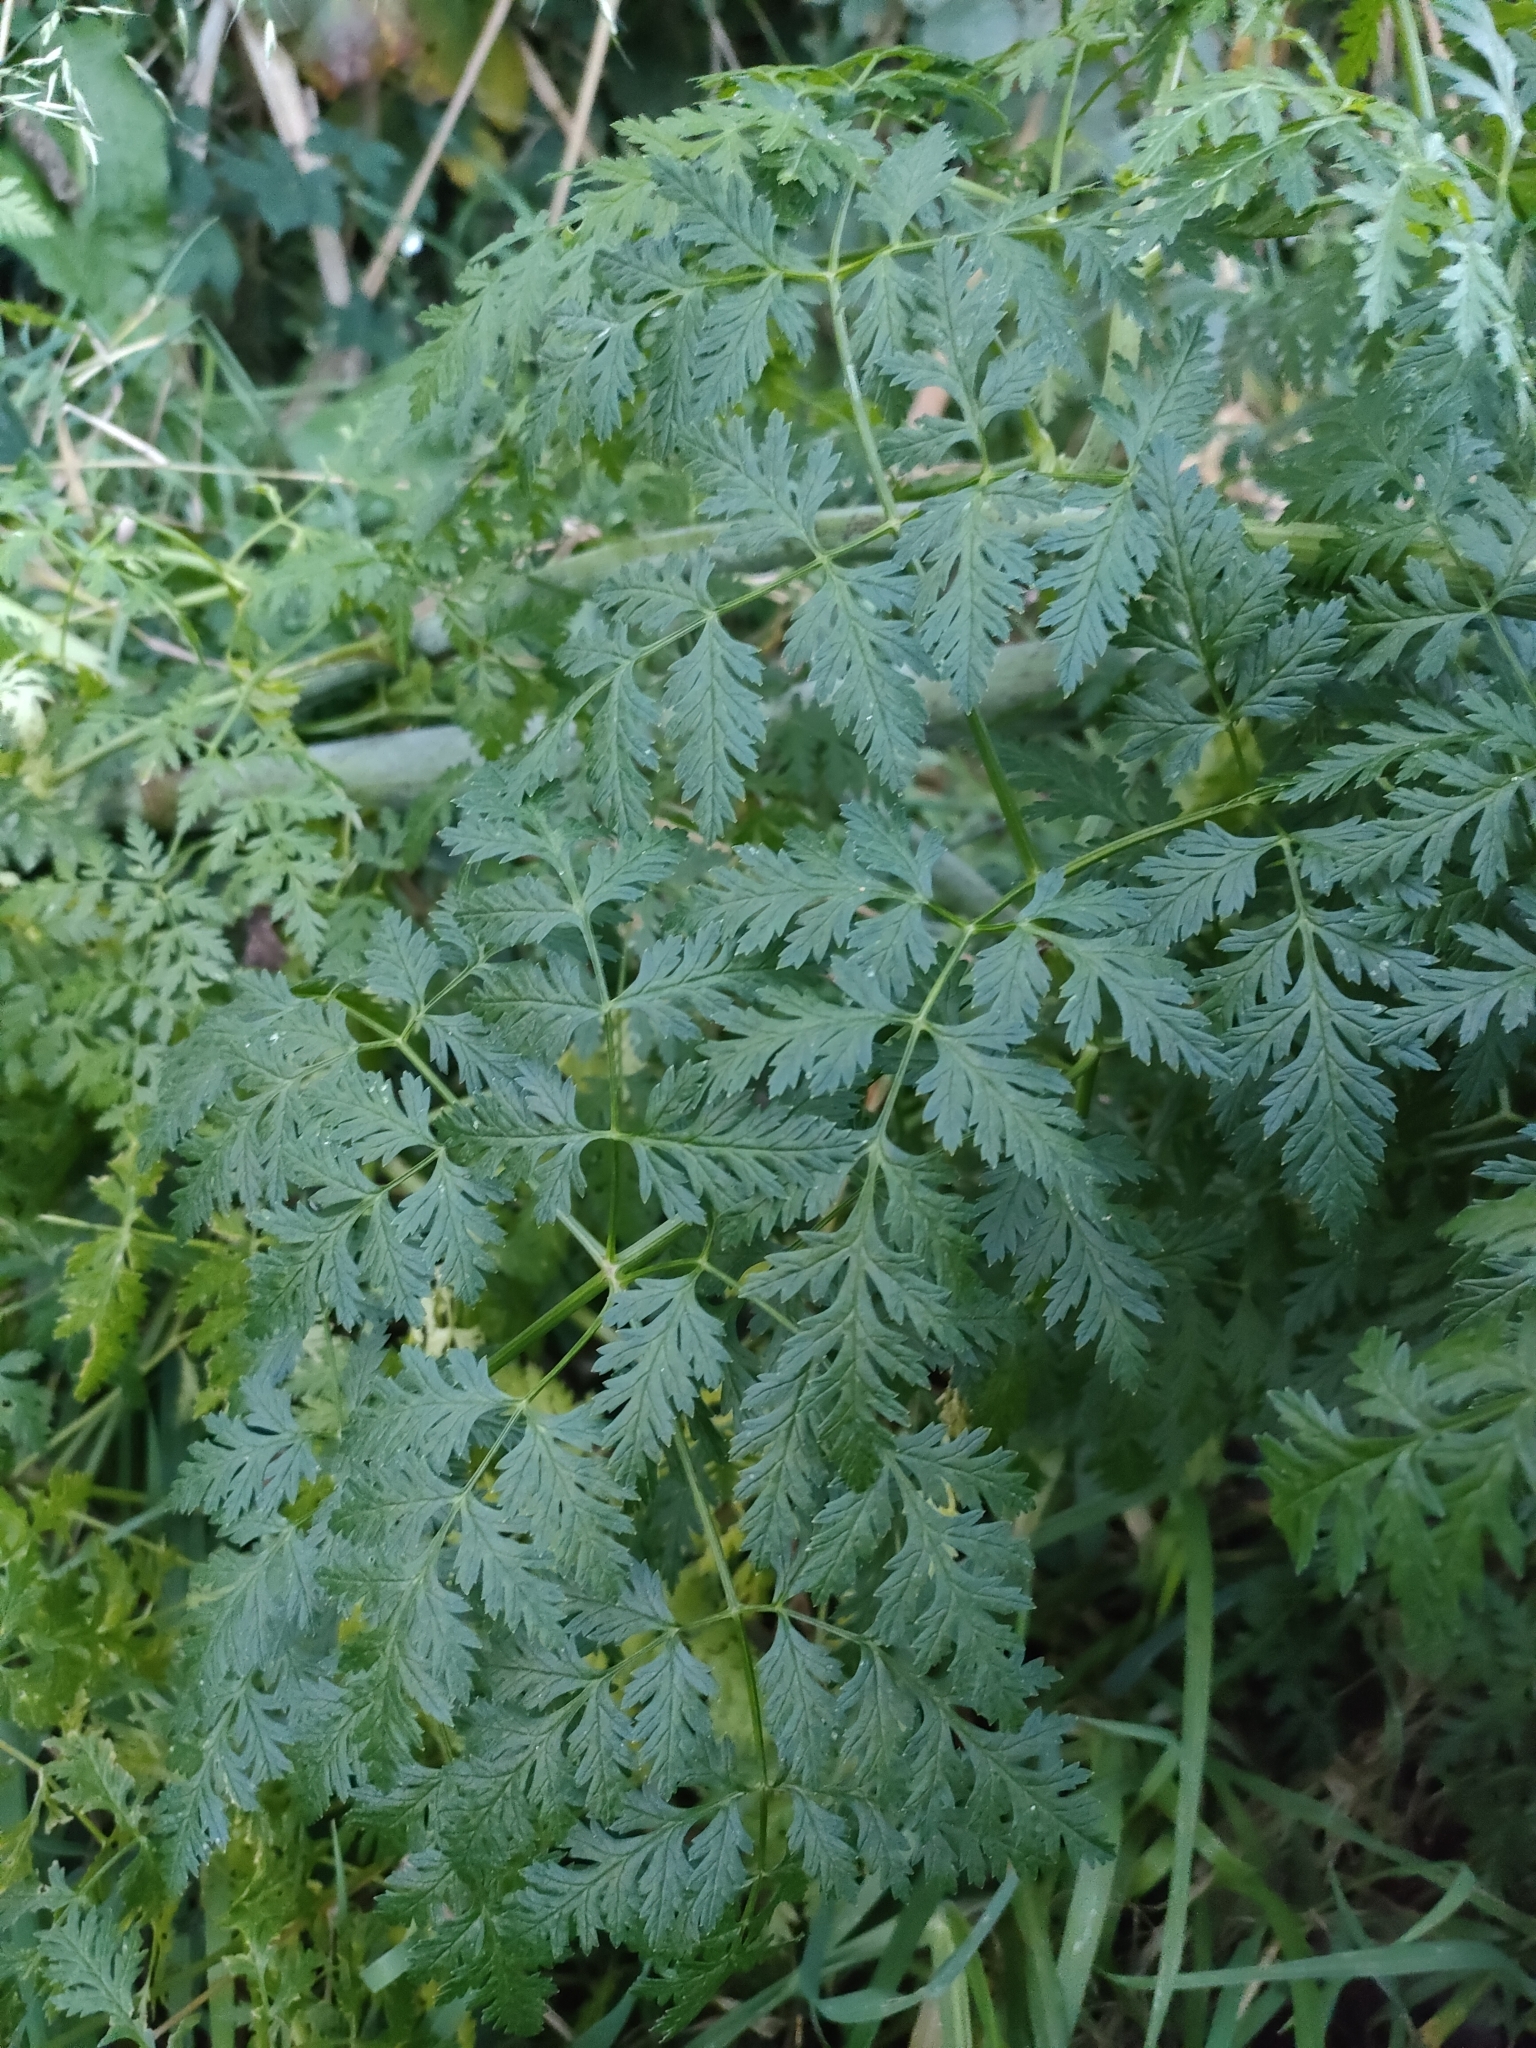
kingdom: Plantae
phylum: Tracheophyta
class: Magnoliopsida
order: Apiales
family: Apiaceae
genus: Conium
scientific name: Conium maculatum
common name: Hemlock
